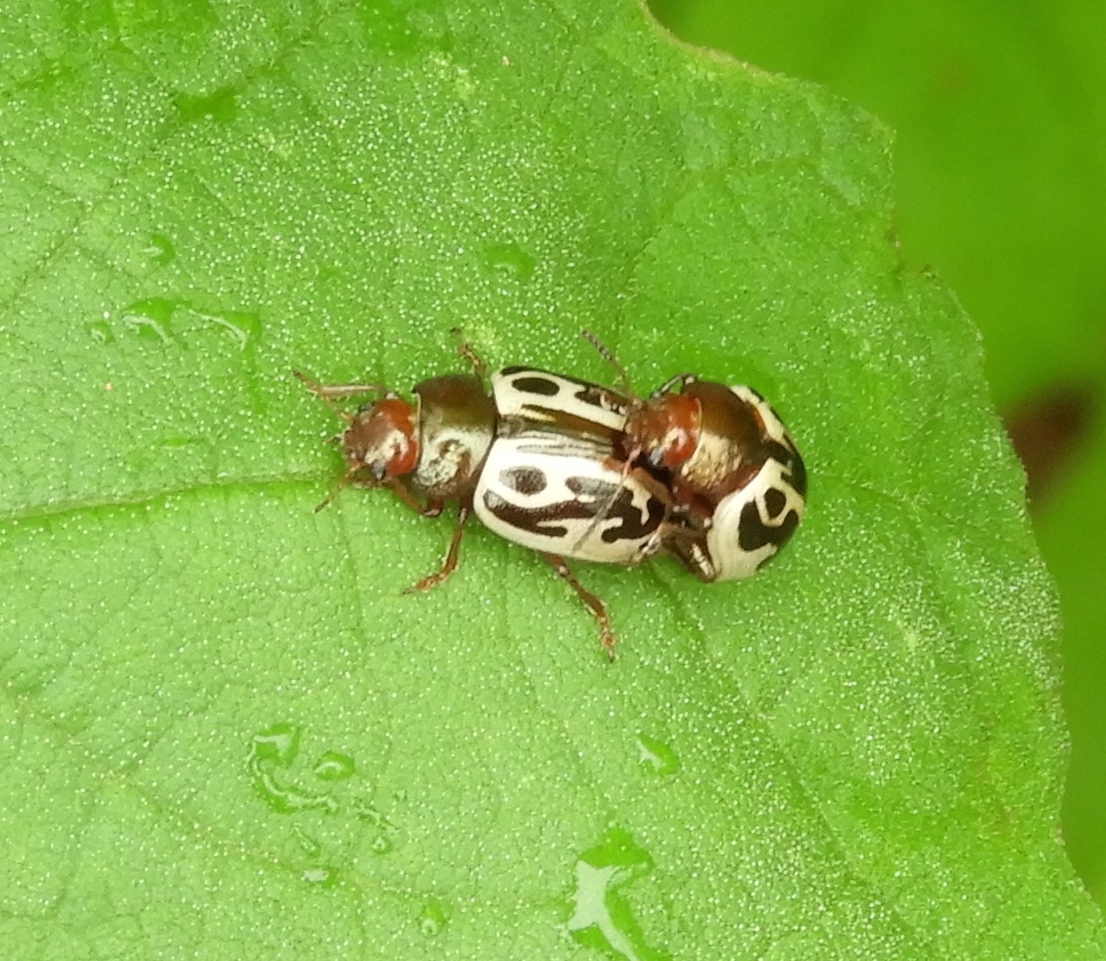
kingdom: Animalia
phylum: Arthropoda
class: Insecta
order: Coleoptera
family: Chrysomelidae
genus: Calligrapha
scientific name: Calligrapha
